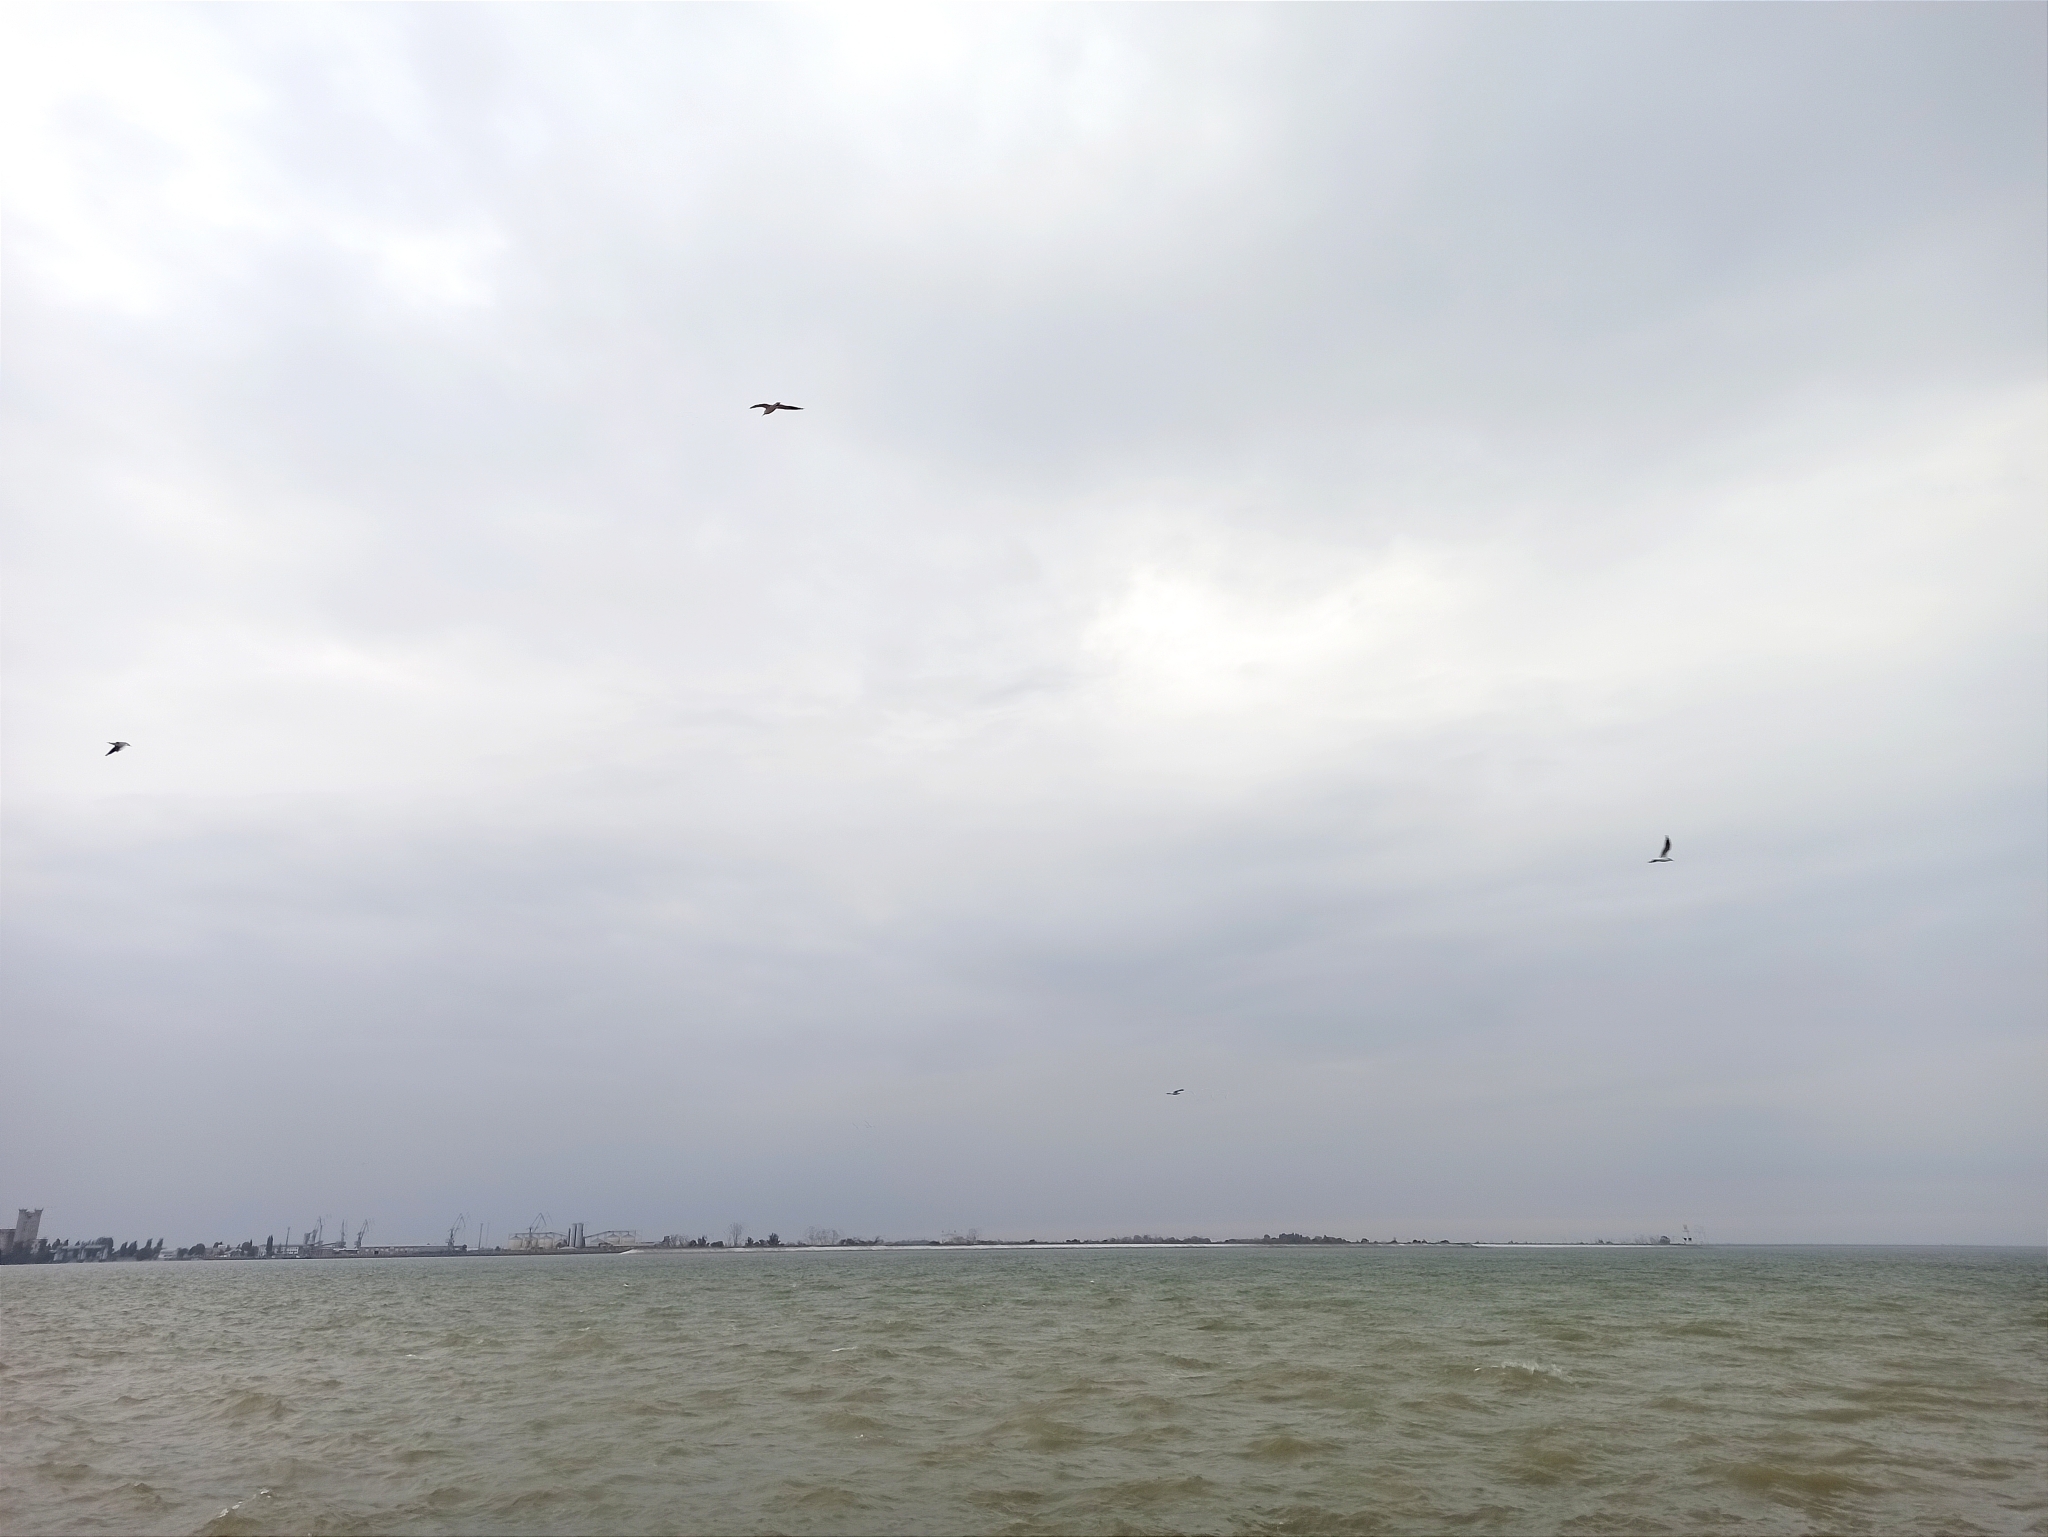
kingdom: Animalia
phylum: Chordata
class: Aves
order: Charadriiformes
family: Laridae
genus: Chroicocephalus
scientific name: Chroicocephalus ridibundus
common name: Black-headed gull
